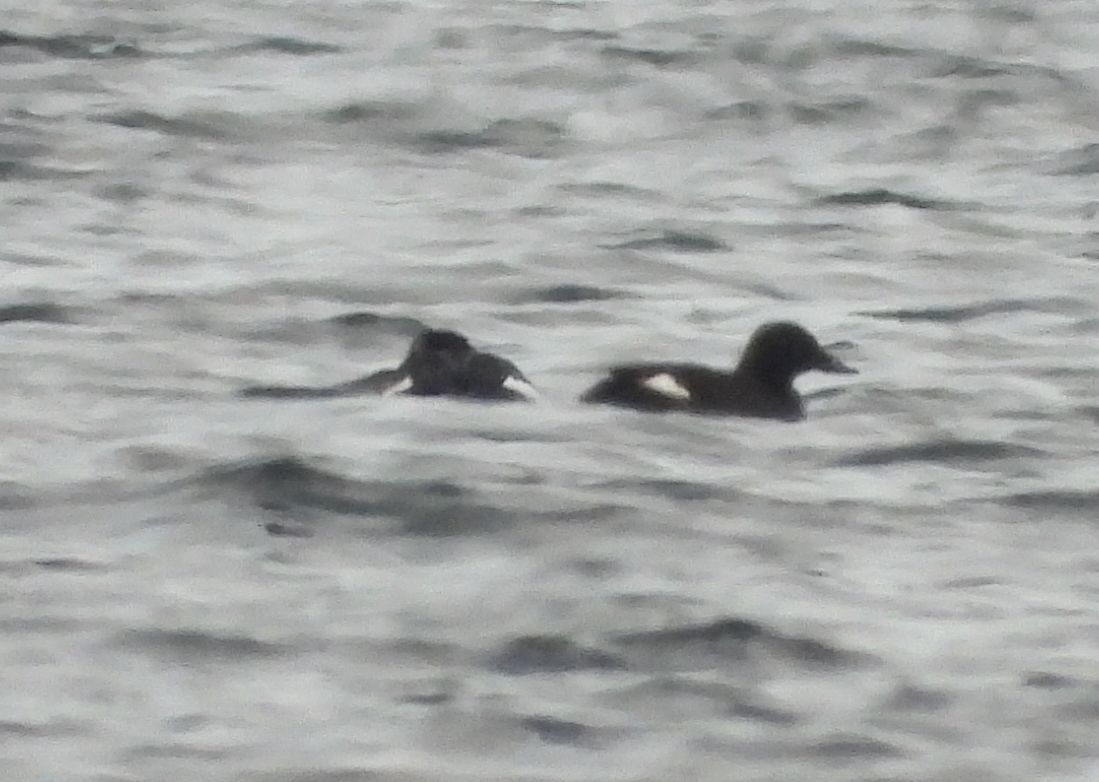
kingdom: Animalia
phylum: Chordata
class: Aves
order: Anseriformes
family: Anatidae
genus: Melanitta
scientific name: Melanitta deglandi
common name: White-winged scoter
